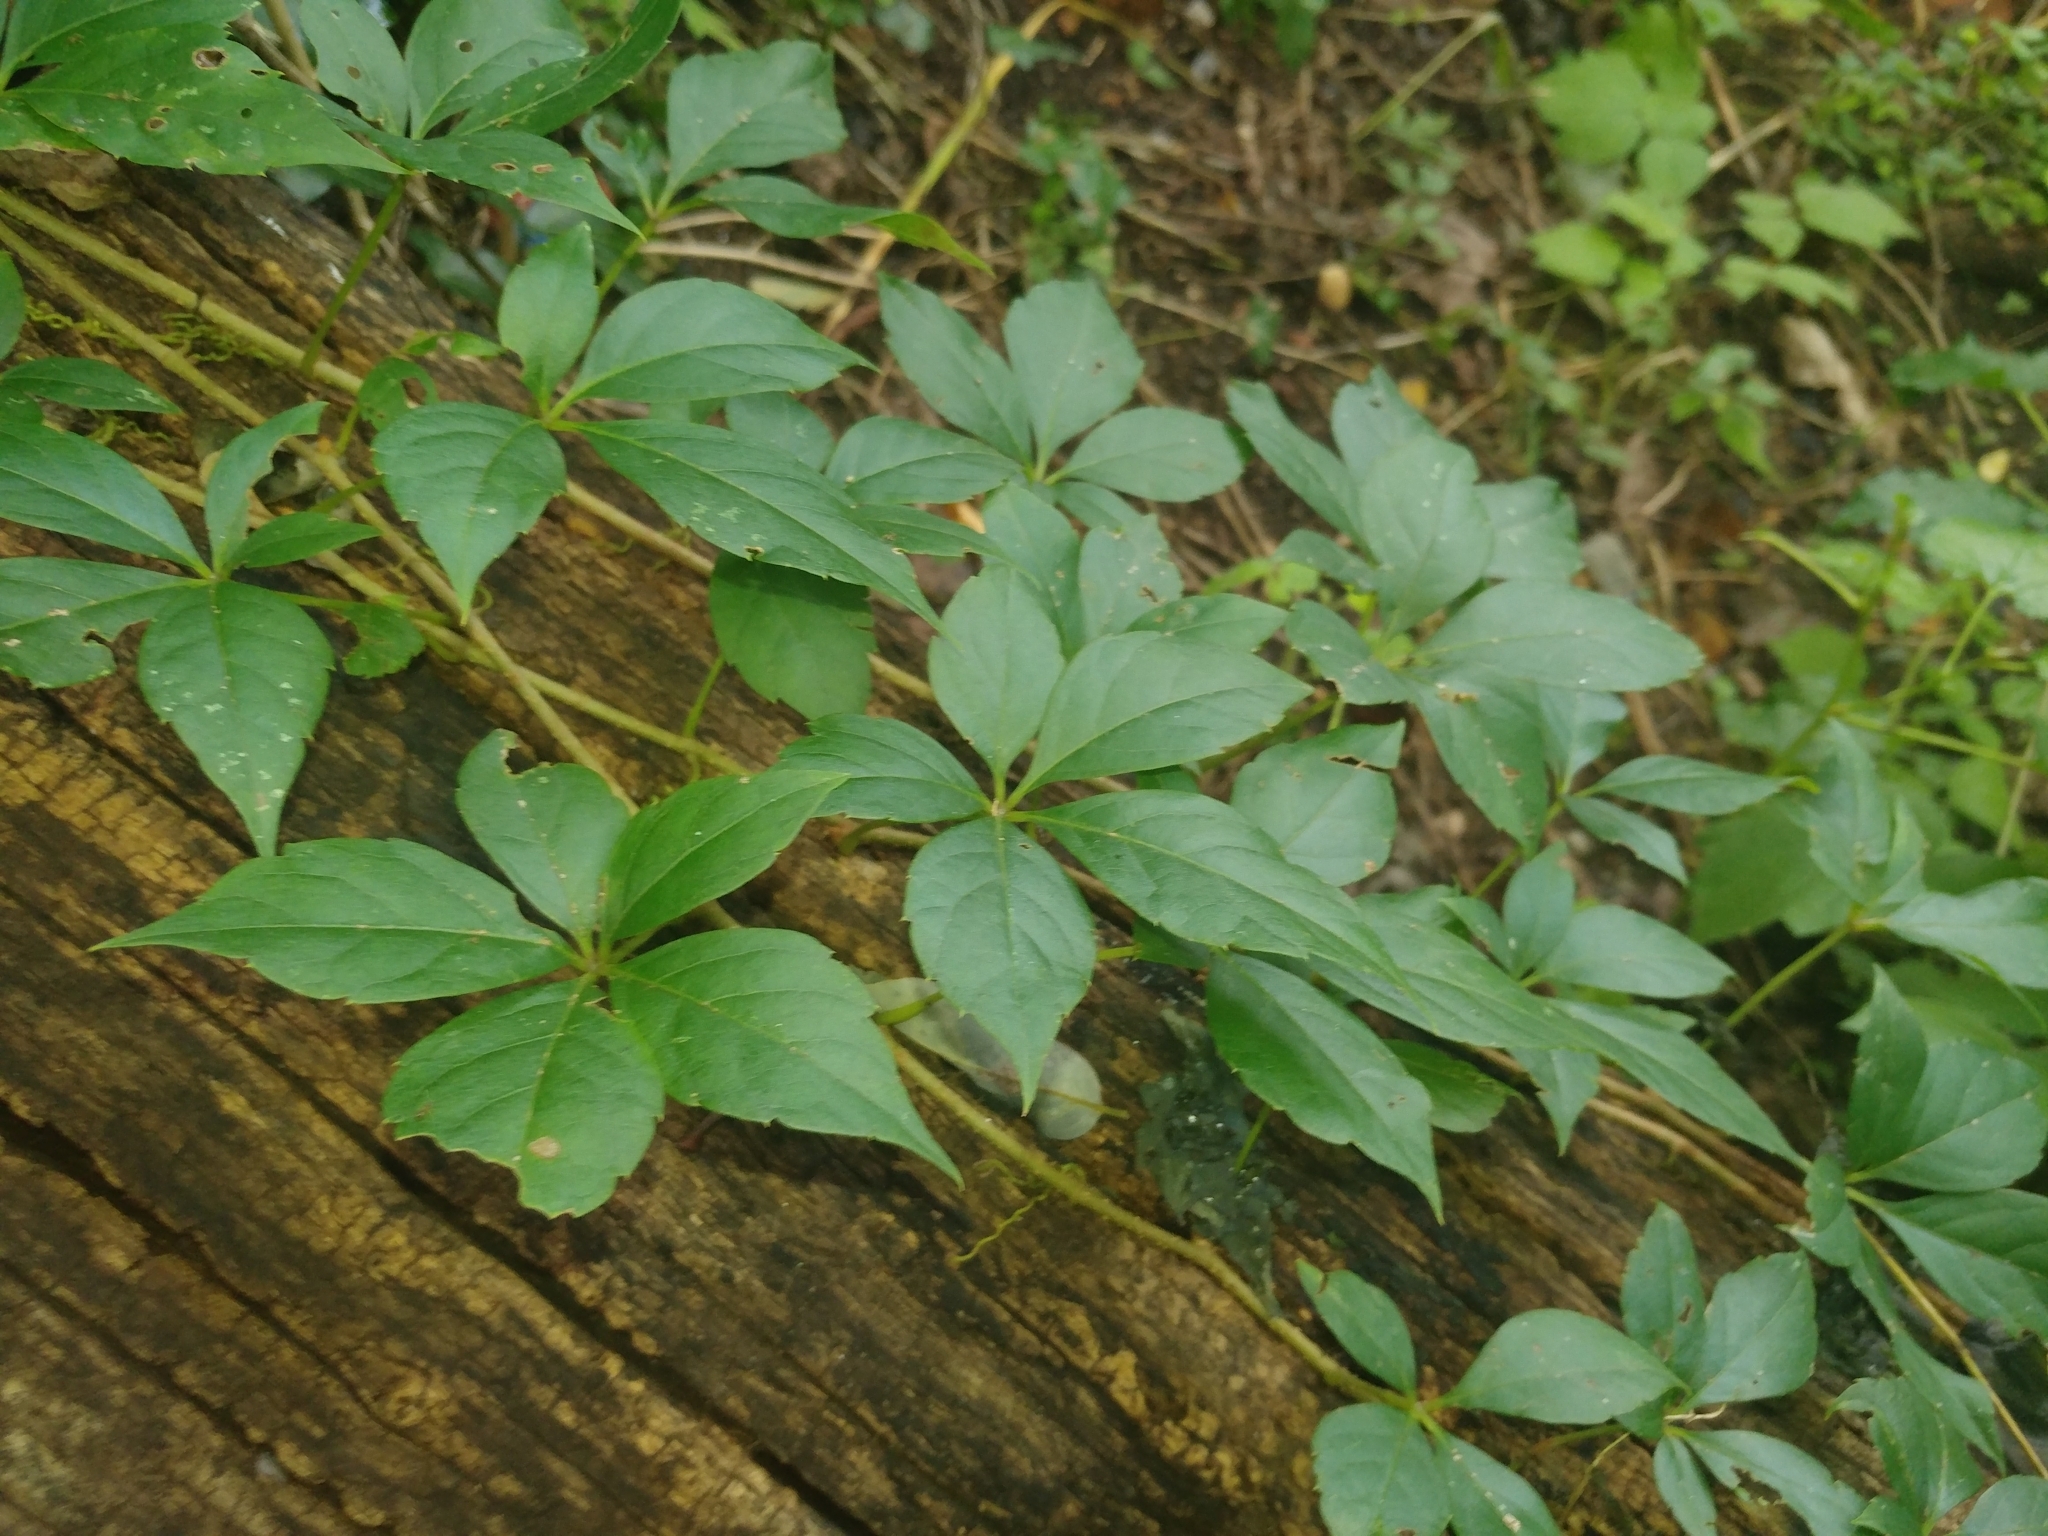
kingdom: Plantae
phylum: Tracheophyta
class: Magnoliopsida
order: Vitales
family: Vitaceae
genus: Parthenocissus
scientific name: Parthenocissus quinquefolia
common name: Virginia-creeper
